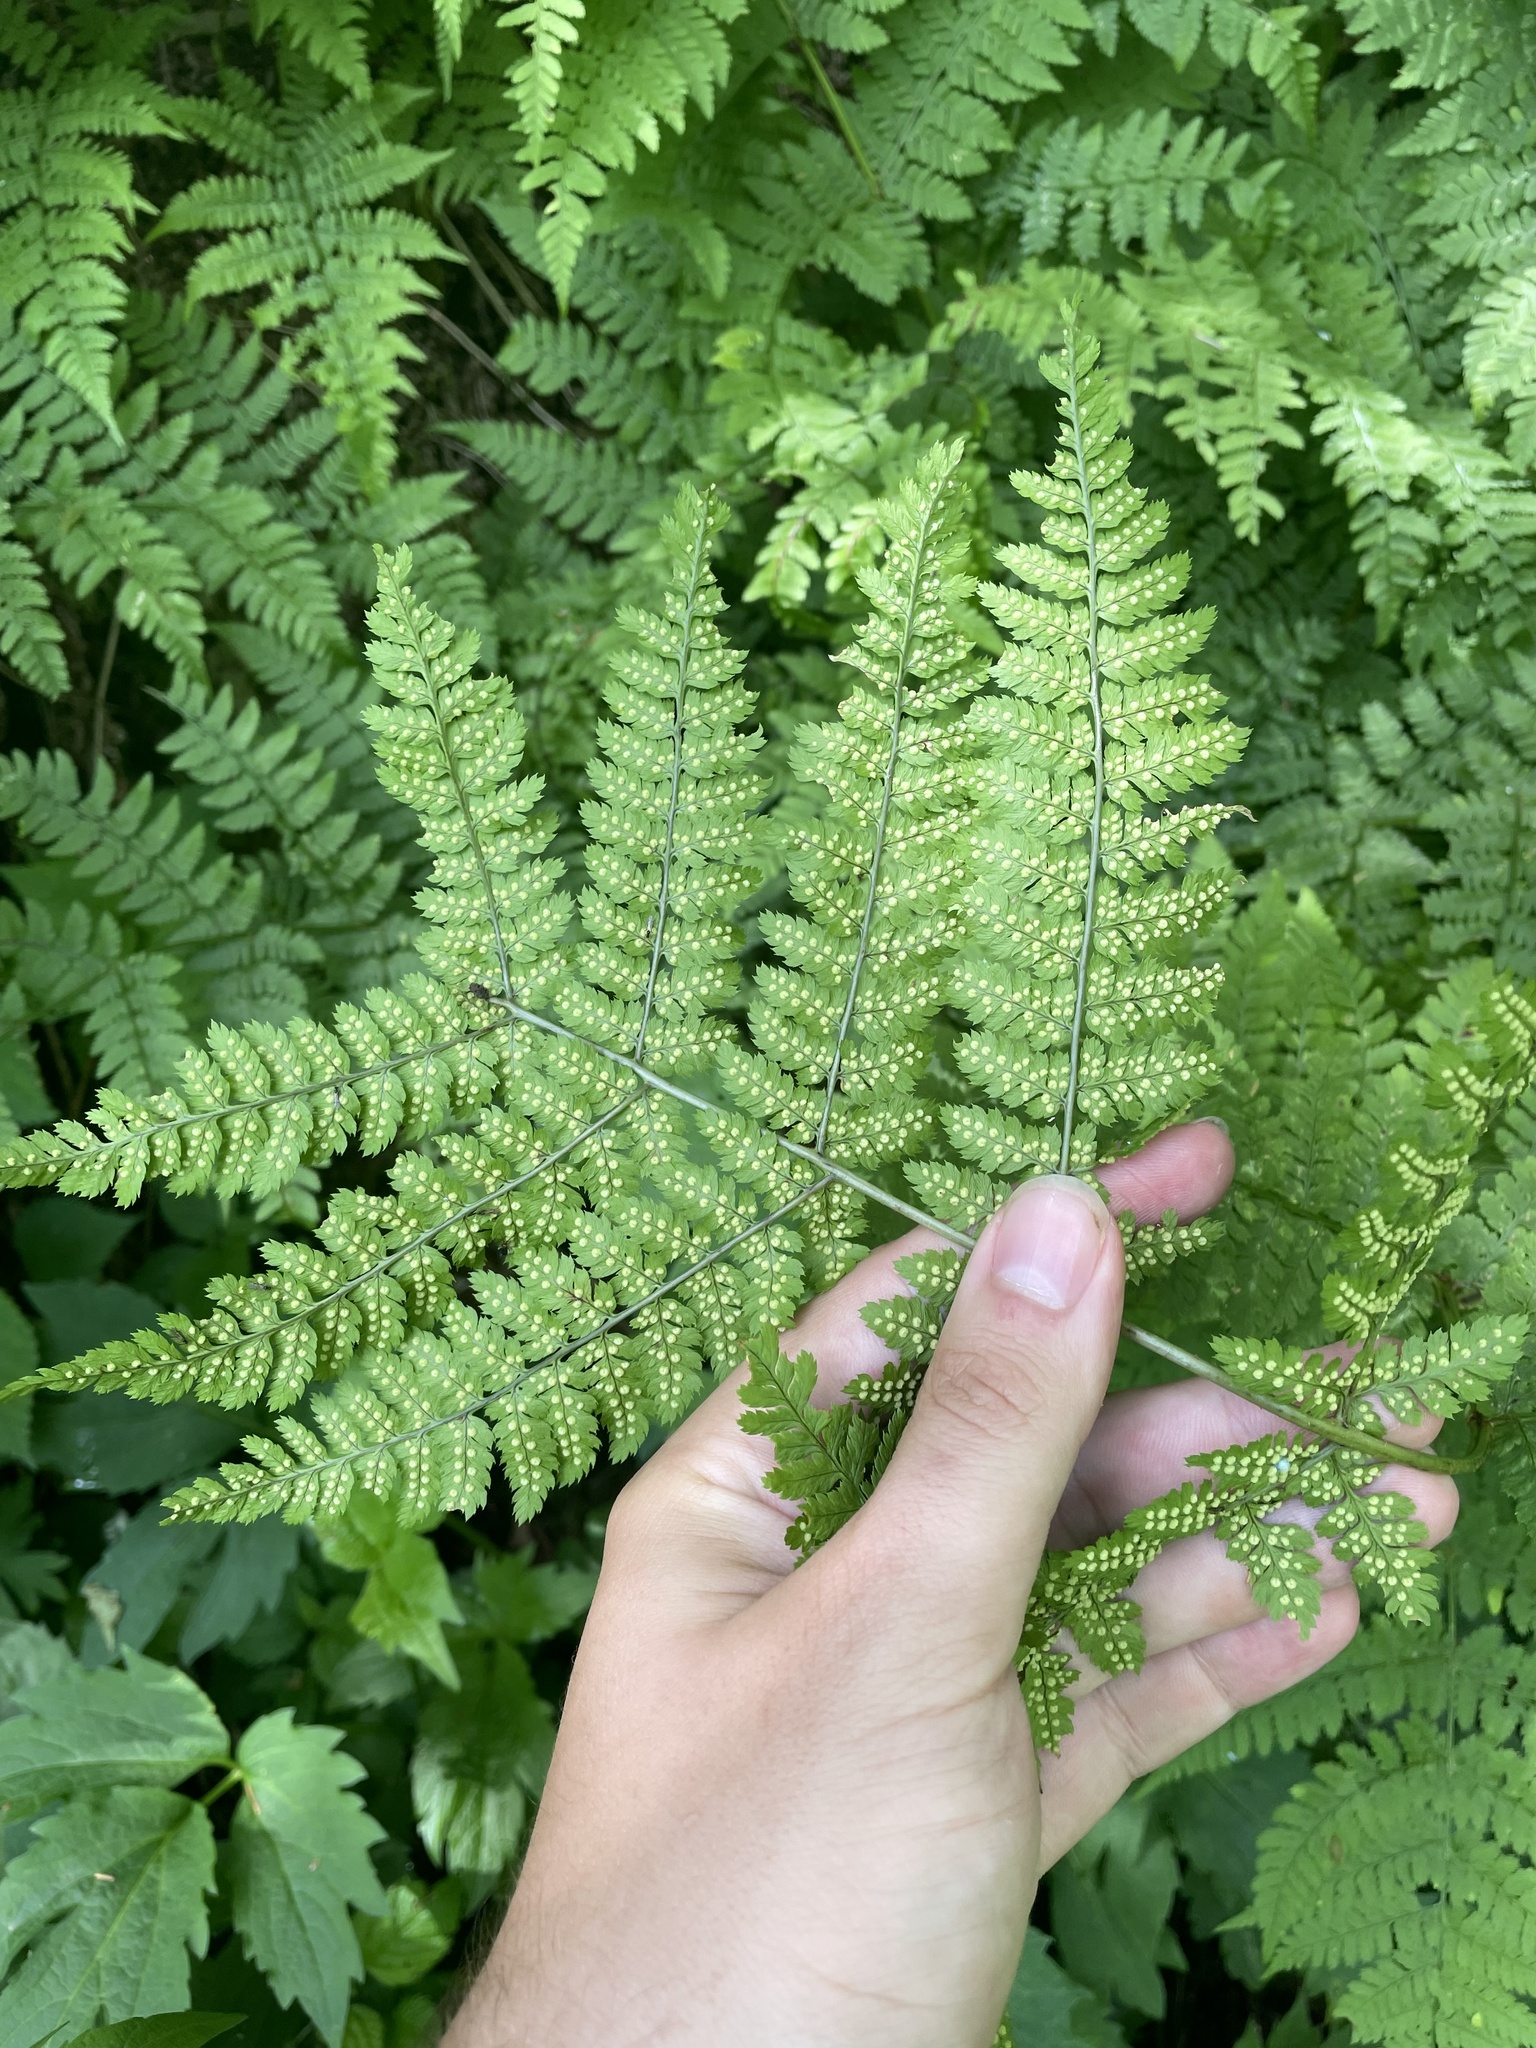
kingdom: Plantae
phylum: Tracheophyta
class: Polypodiopsida
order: Polypodiales
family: Dryopteridaceae
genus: Dryopteris
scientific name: Dryopteris intermedia
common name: Evergreen wood fern
